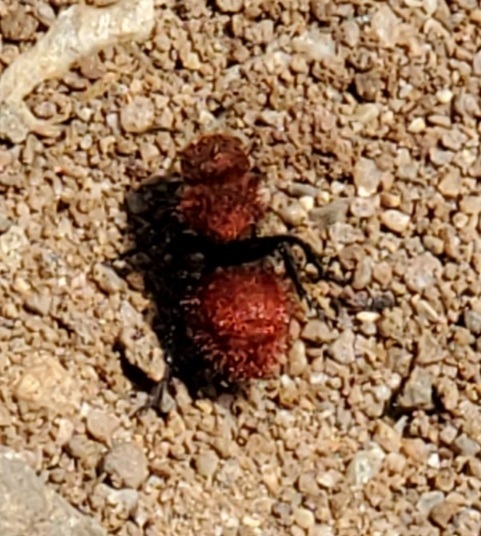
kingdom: Animalia
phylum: Arthropoda
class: Insecta
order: Hymenoptera
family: Mutillidae
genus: Dasymutilla
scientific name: Dasymutilla
